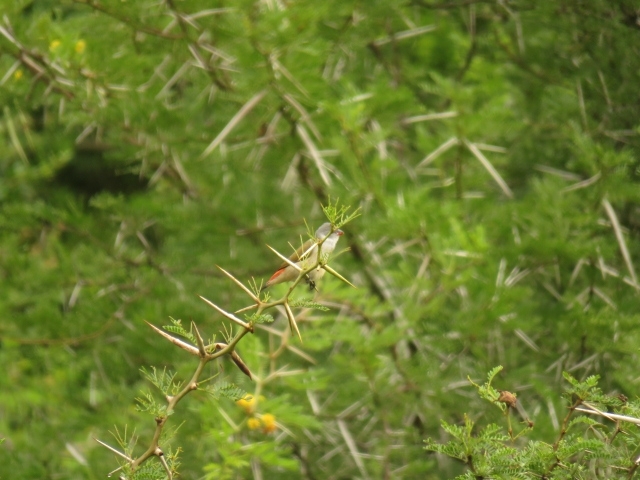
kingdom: Animalia
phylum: Chordata
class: Aves
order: Passeriformes
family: Estrildidae
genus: Coccopygia
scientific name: Coccopygia melanotis
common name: Swee waxbill
